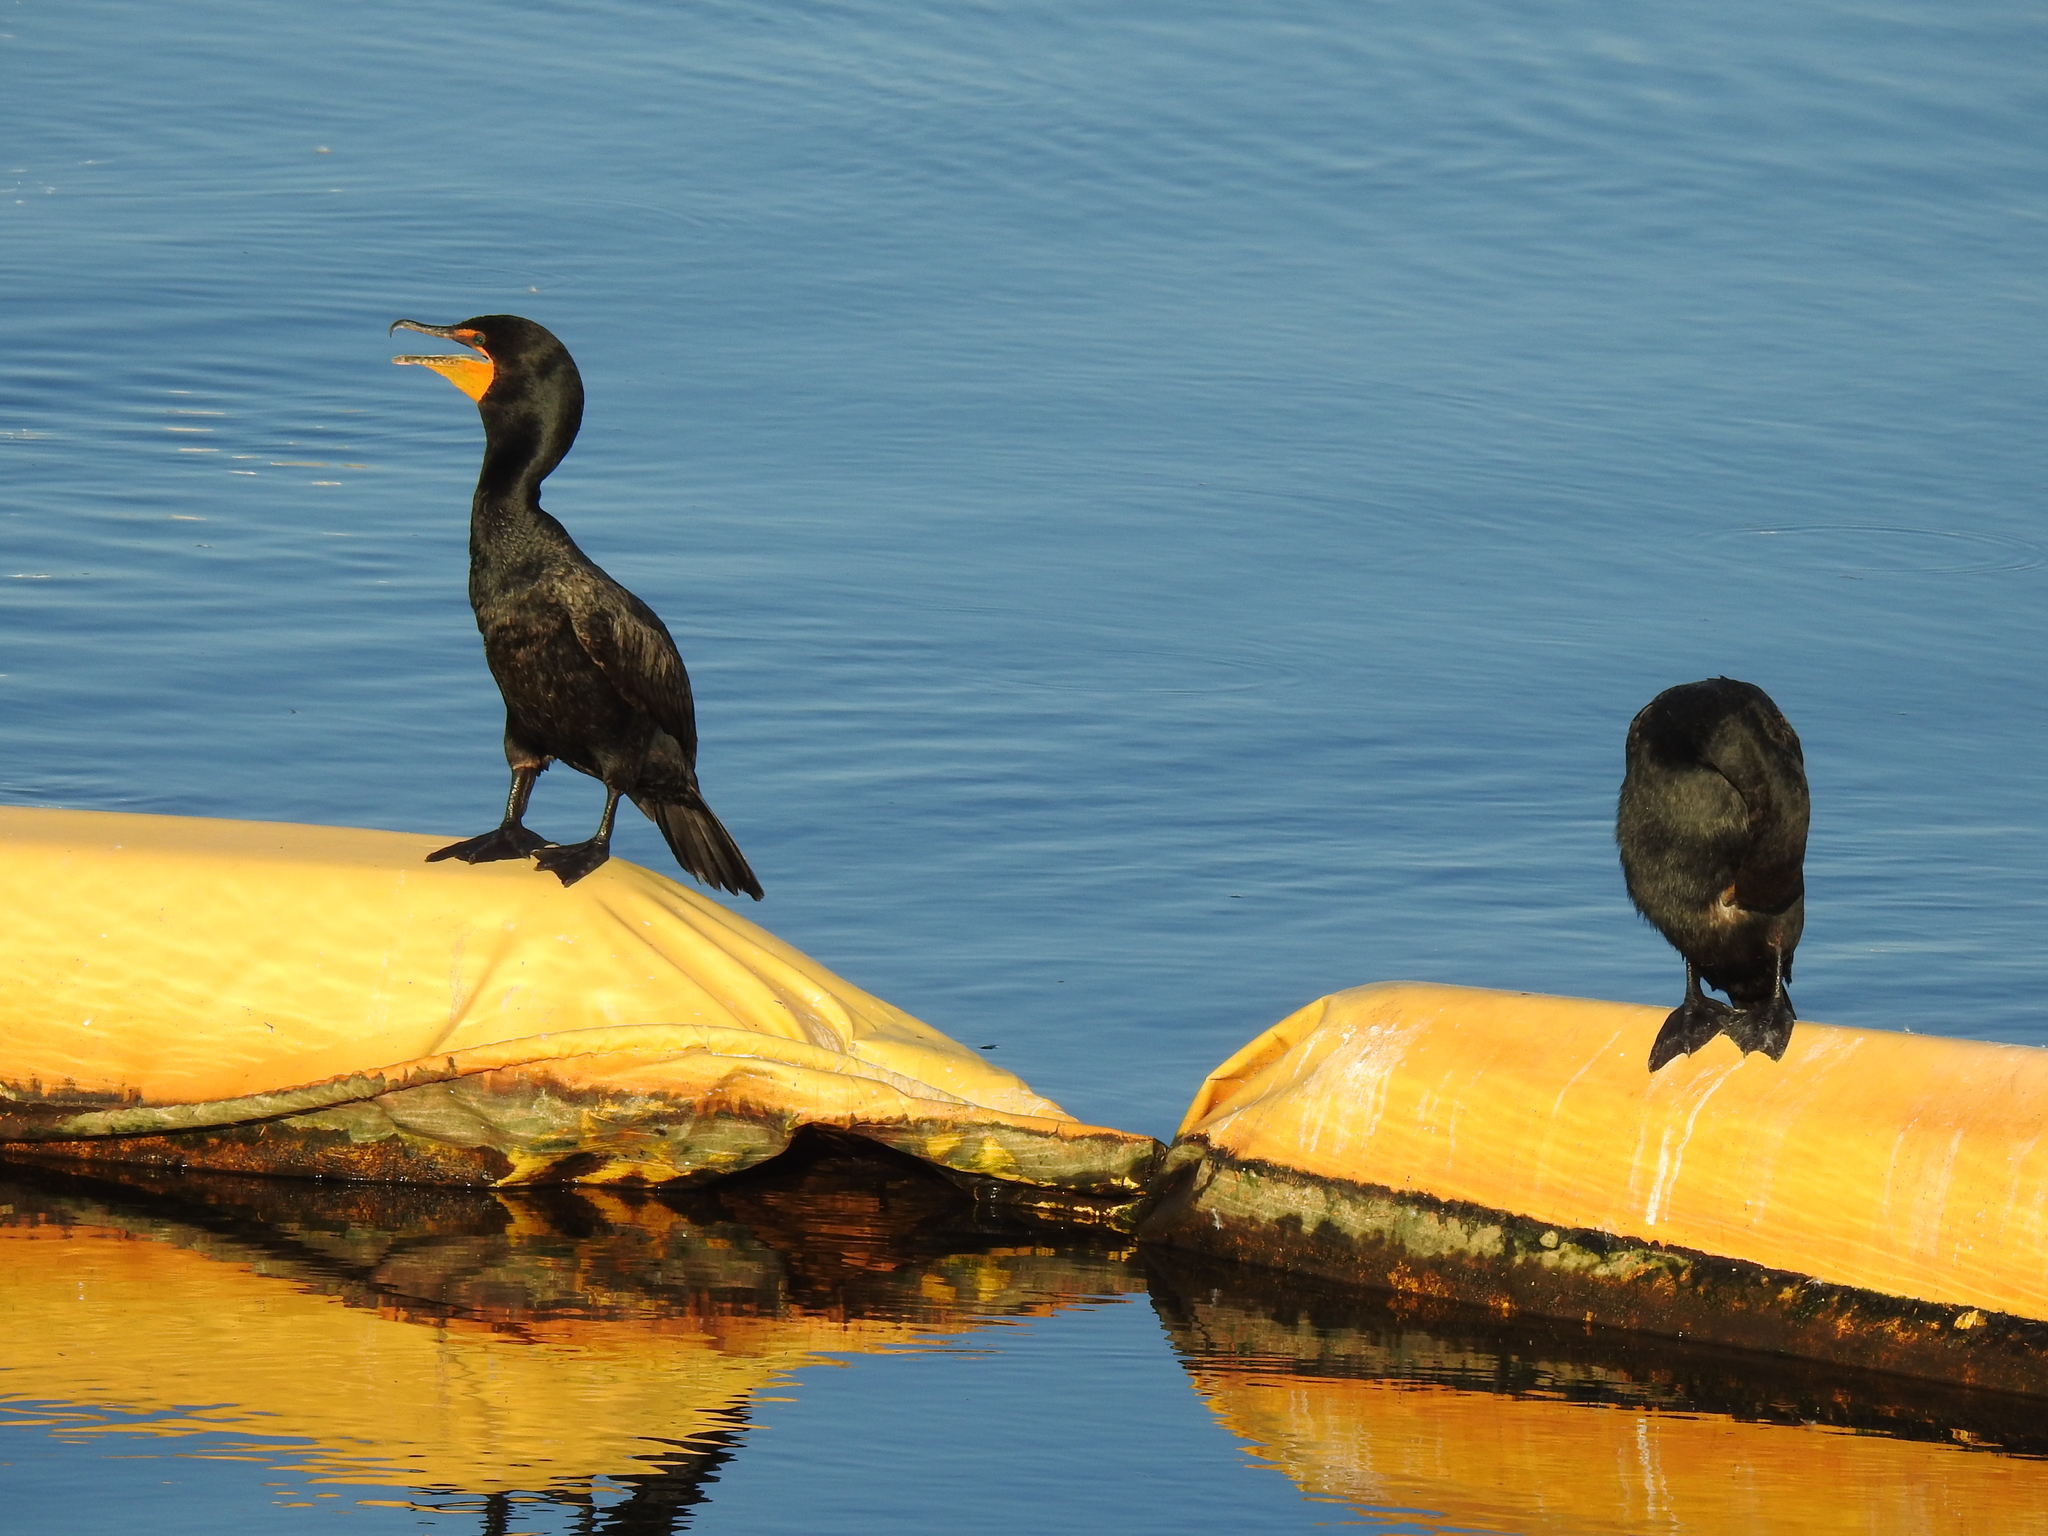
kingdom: Animalia
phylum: Chordata
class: Aves
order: Suliformes
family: Phalacrocoracidae
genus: Phalacrocorax
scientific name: Phalacrocorax auritus
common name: Double-crested cormorant
